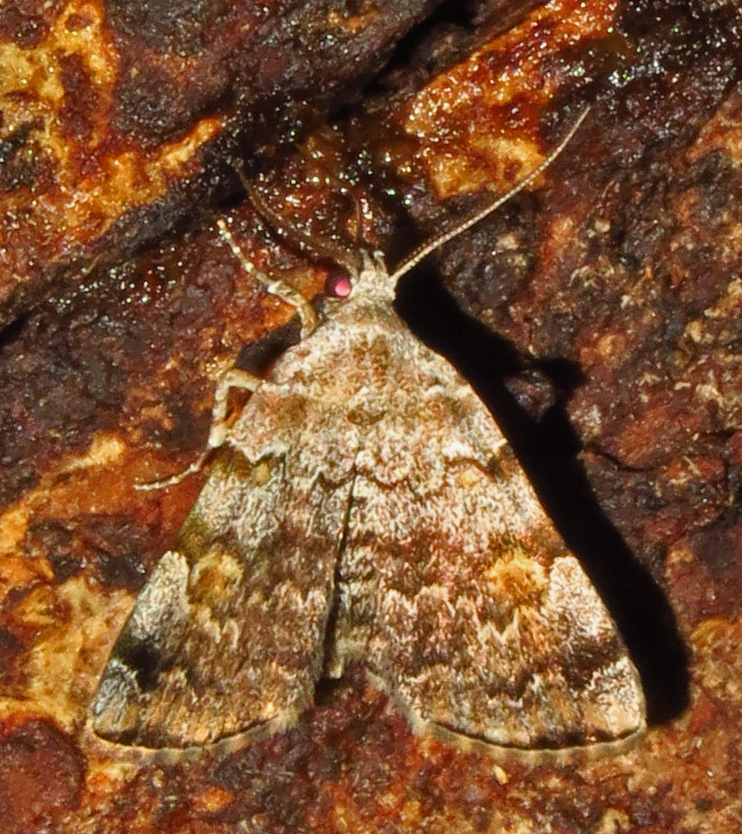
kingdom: Animalia
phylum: Arthropoda
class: Insecta
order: Lepidoptera
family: Erebidae
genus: Idia
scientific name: Idia americalis
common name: American idia moth
